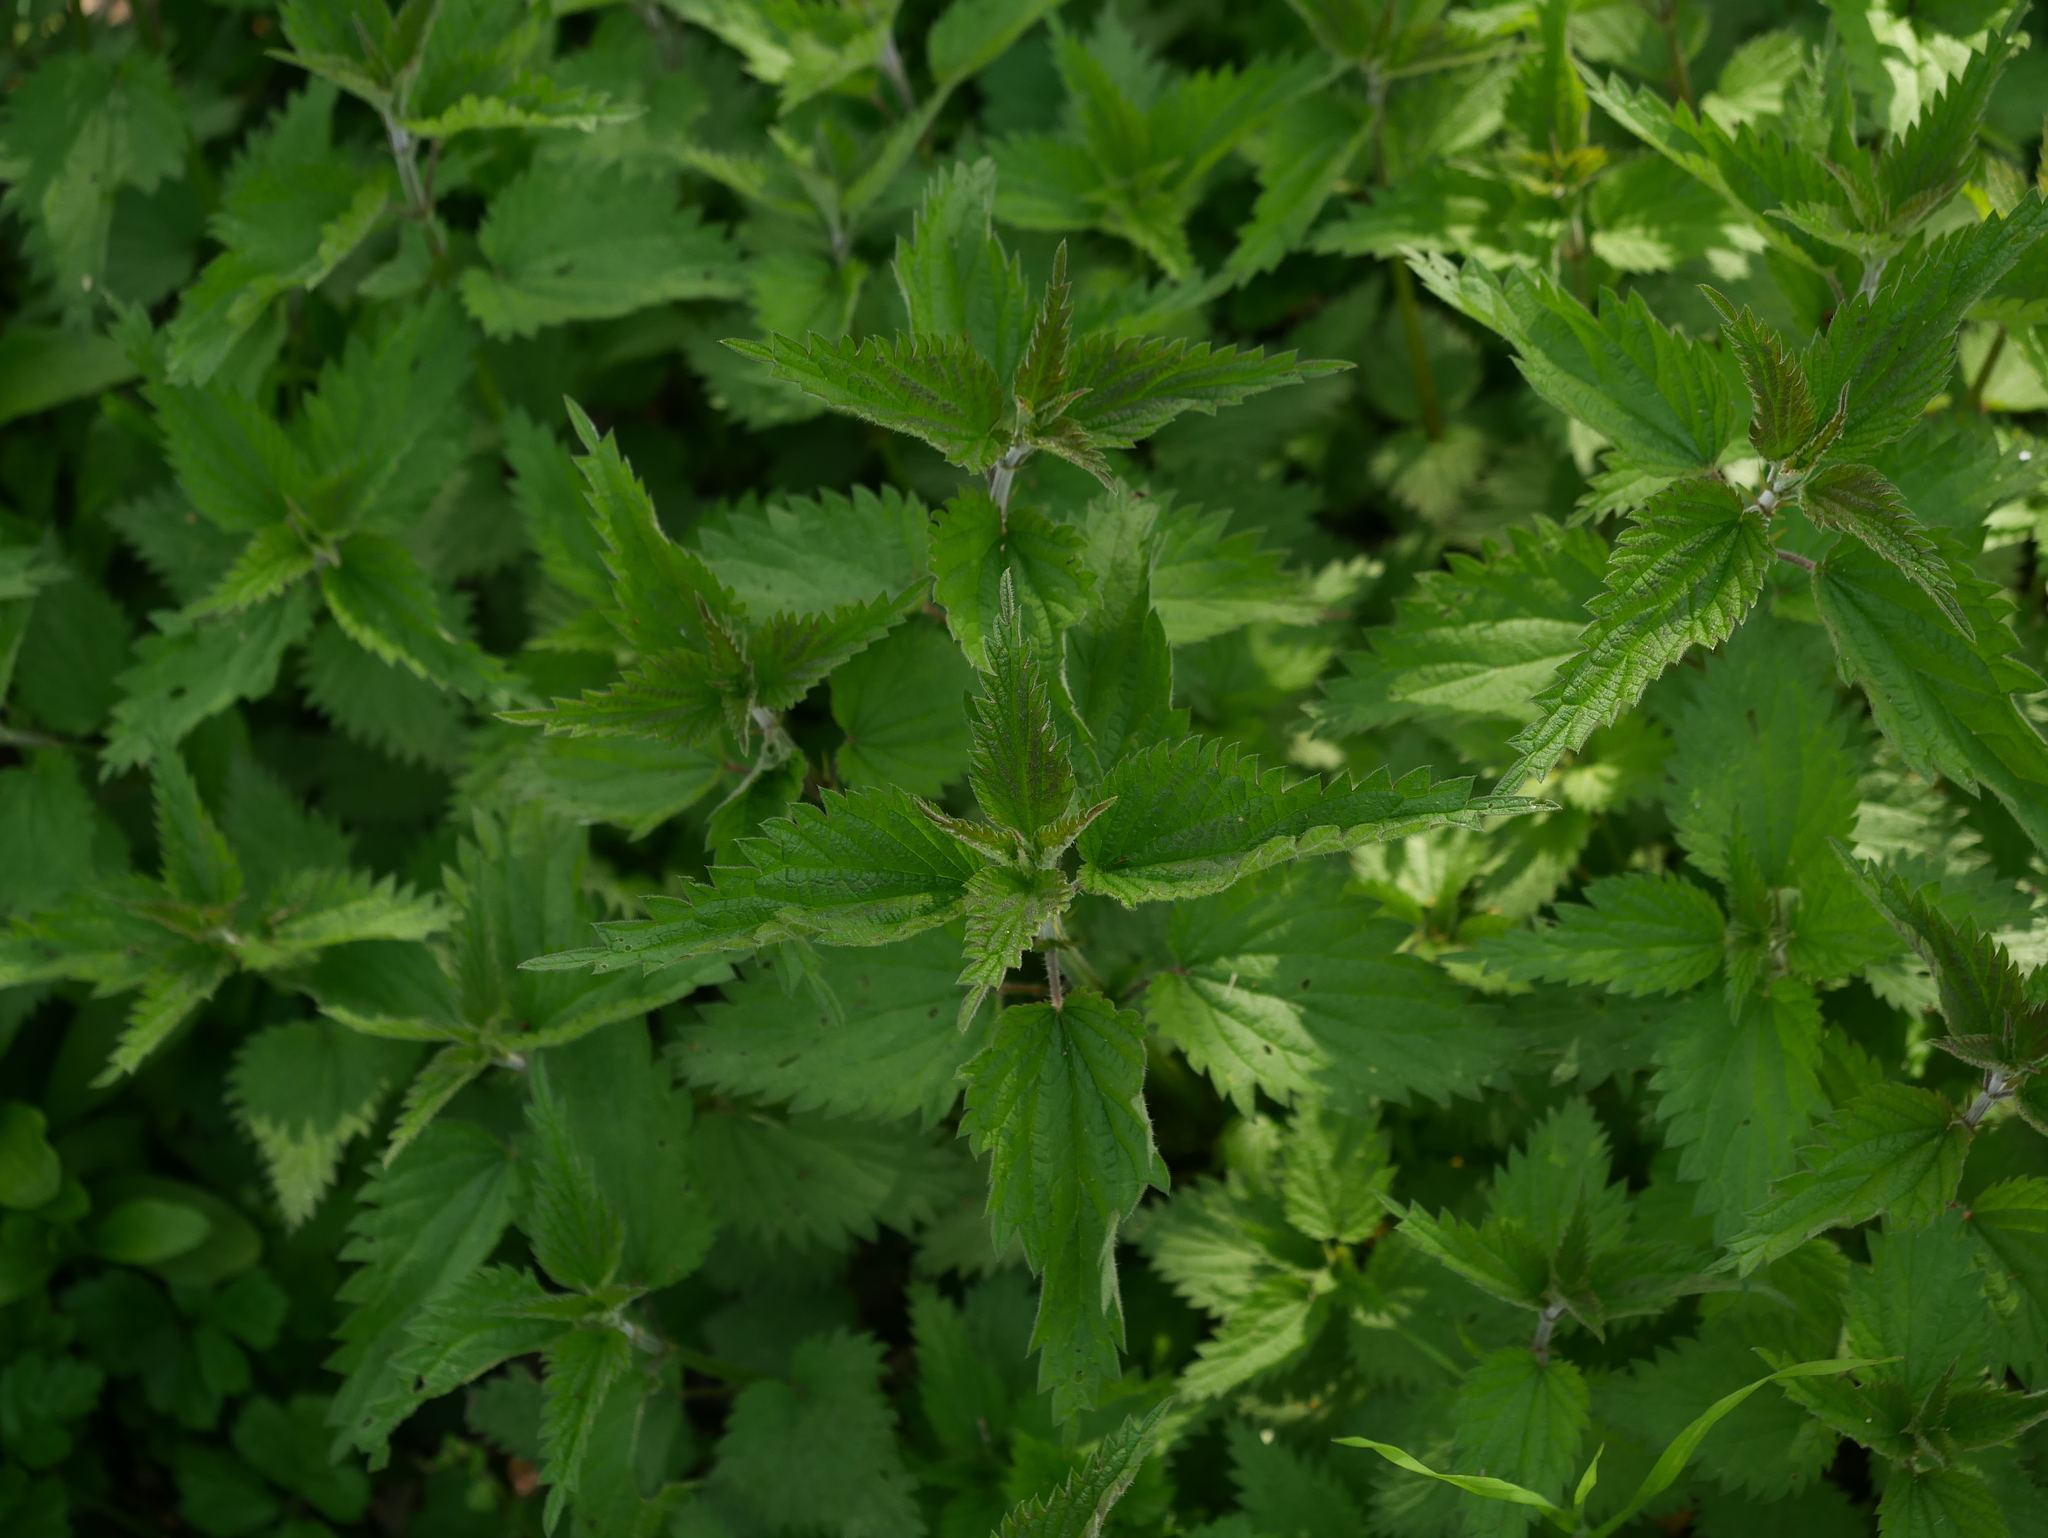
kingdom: Plantae
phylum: Tracheophyta
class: Magnoliopsida
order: Rosales
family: Urticaceae
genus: Urtica
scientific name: Urtica dioica
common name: Common nettle
